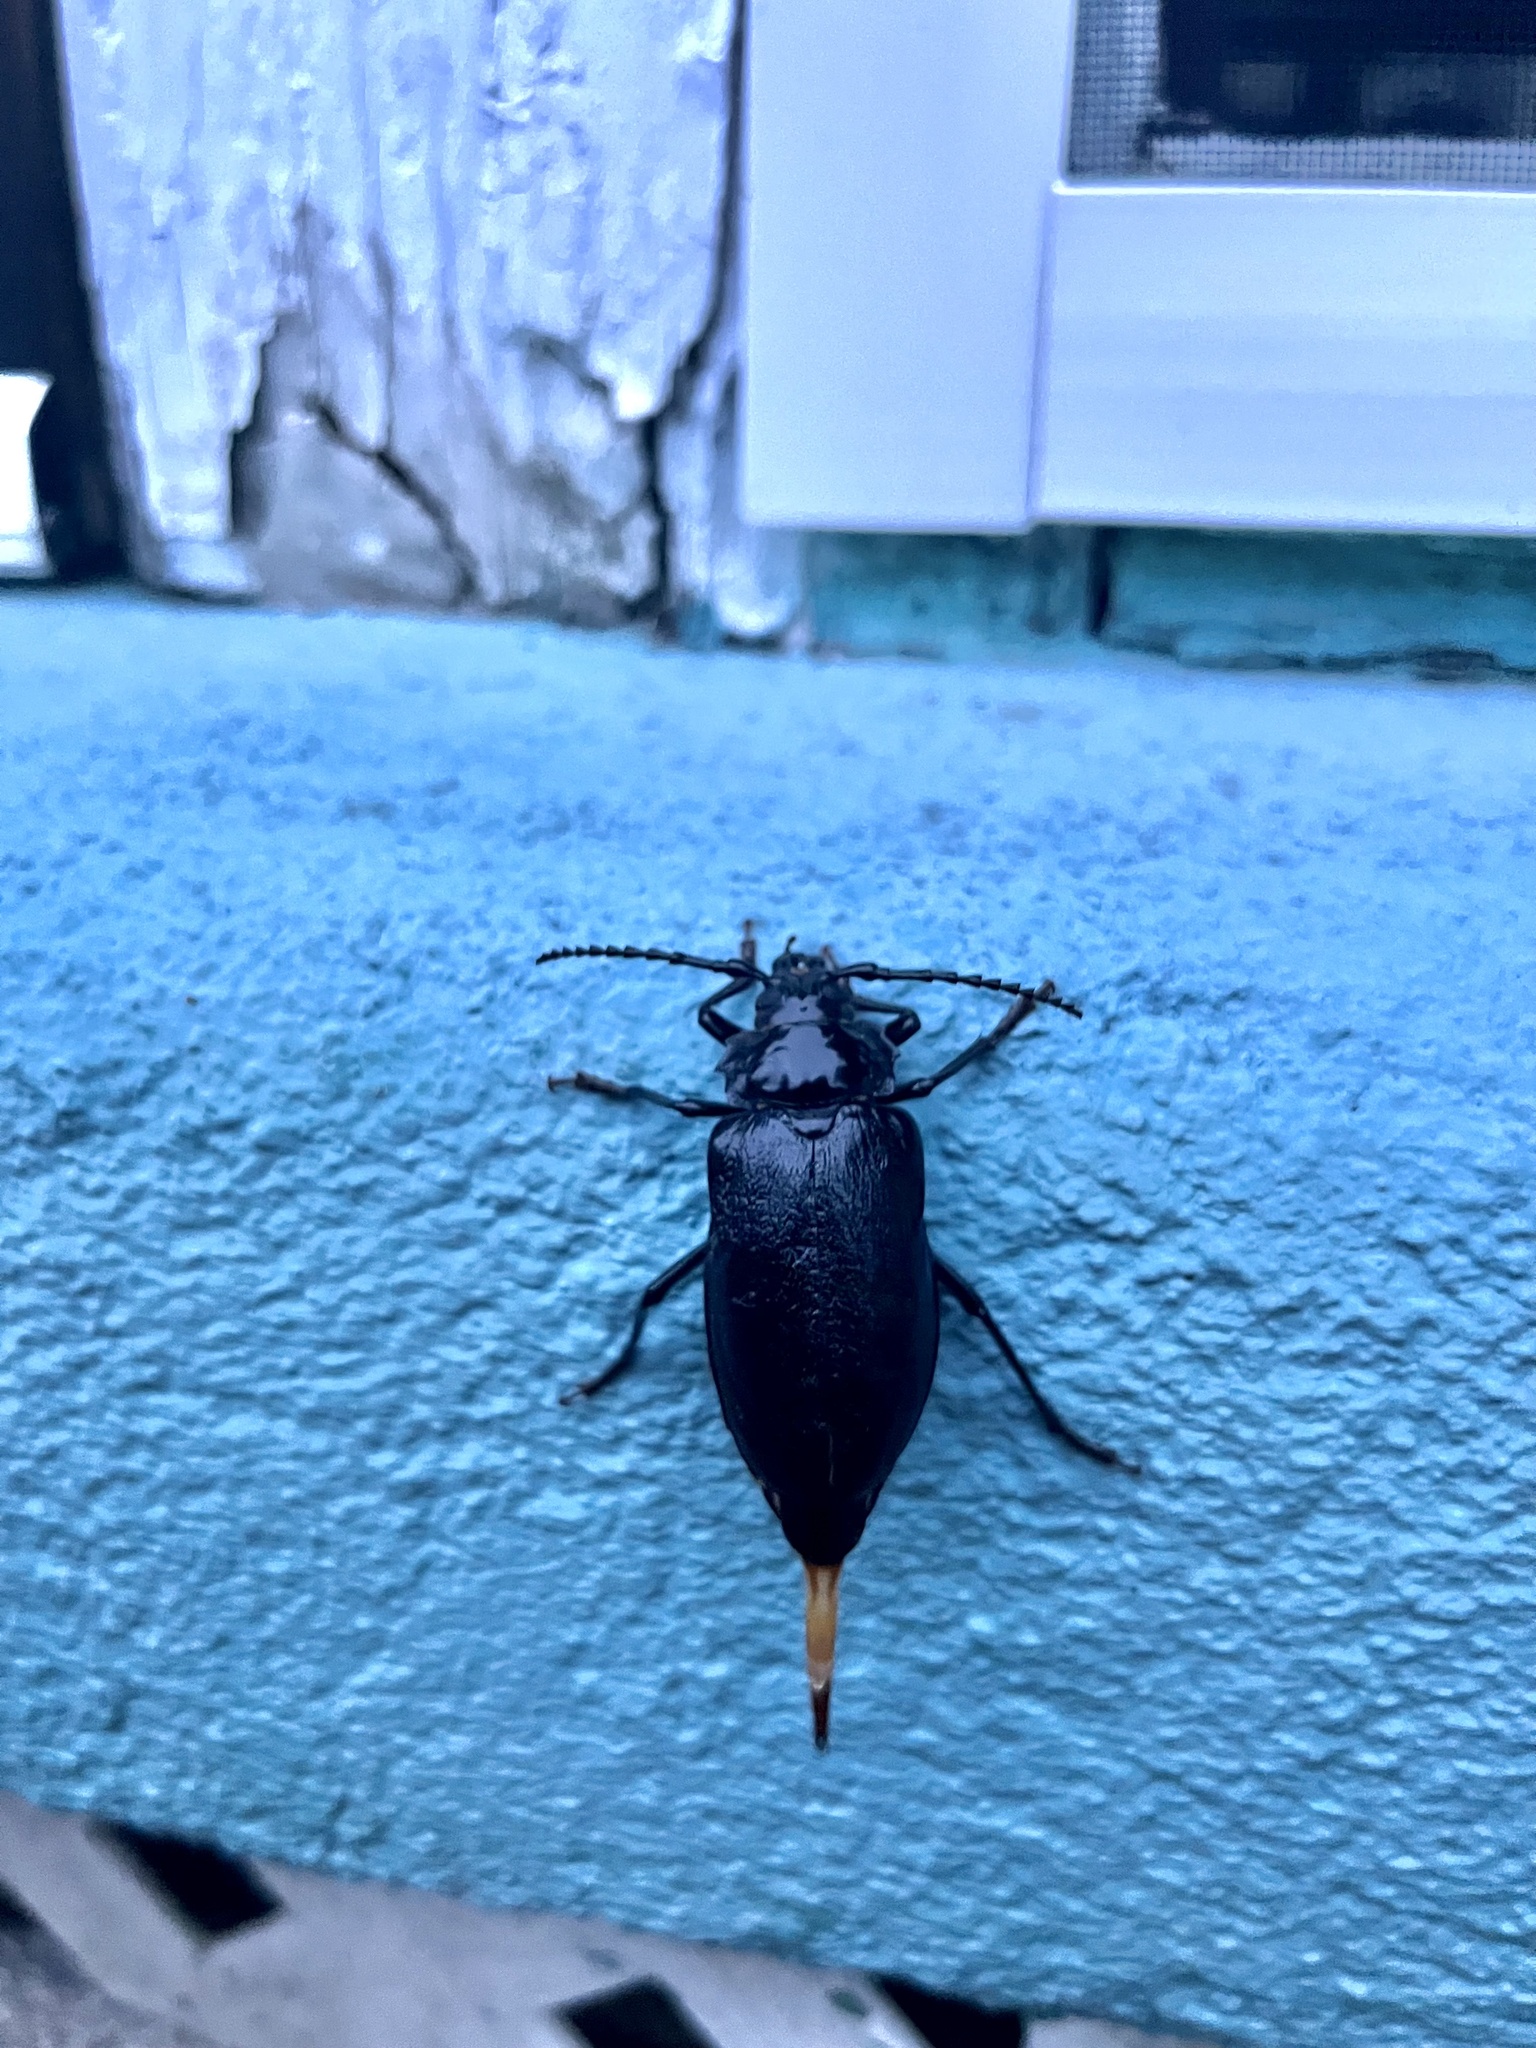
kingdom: Animalia
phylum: Arthropoda
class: Insecta
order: Coleoptera
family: Cerambycidae
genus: Prionus
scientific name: Prionus laticollis
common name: Broad necked prionus
